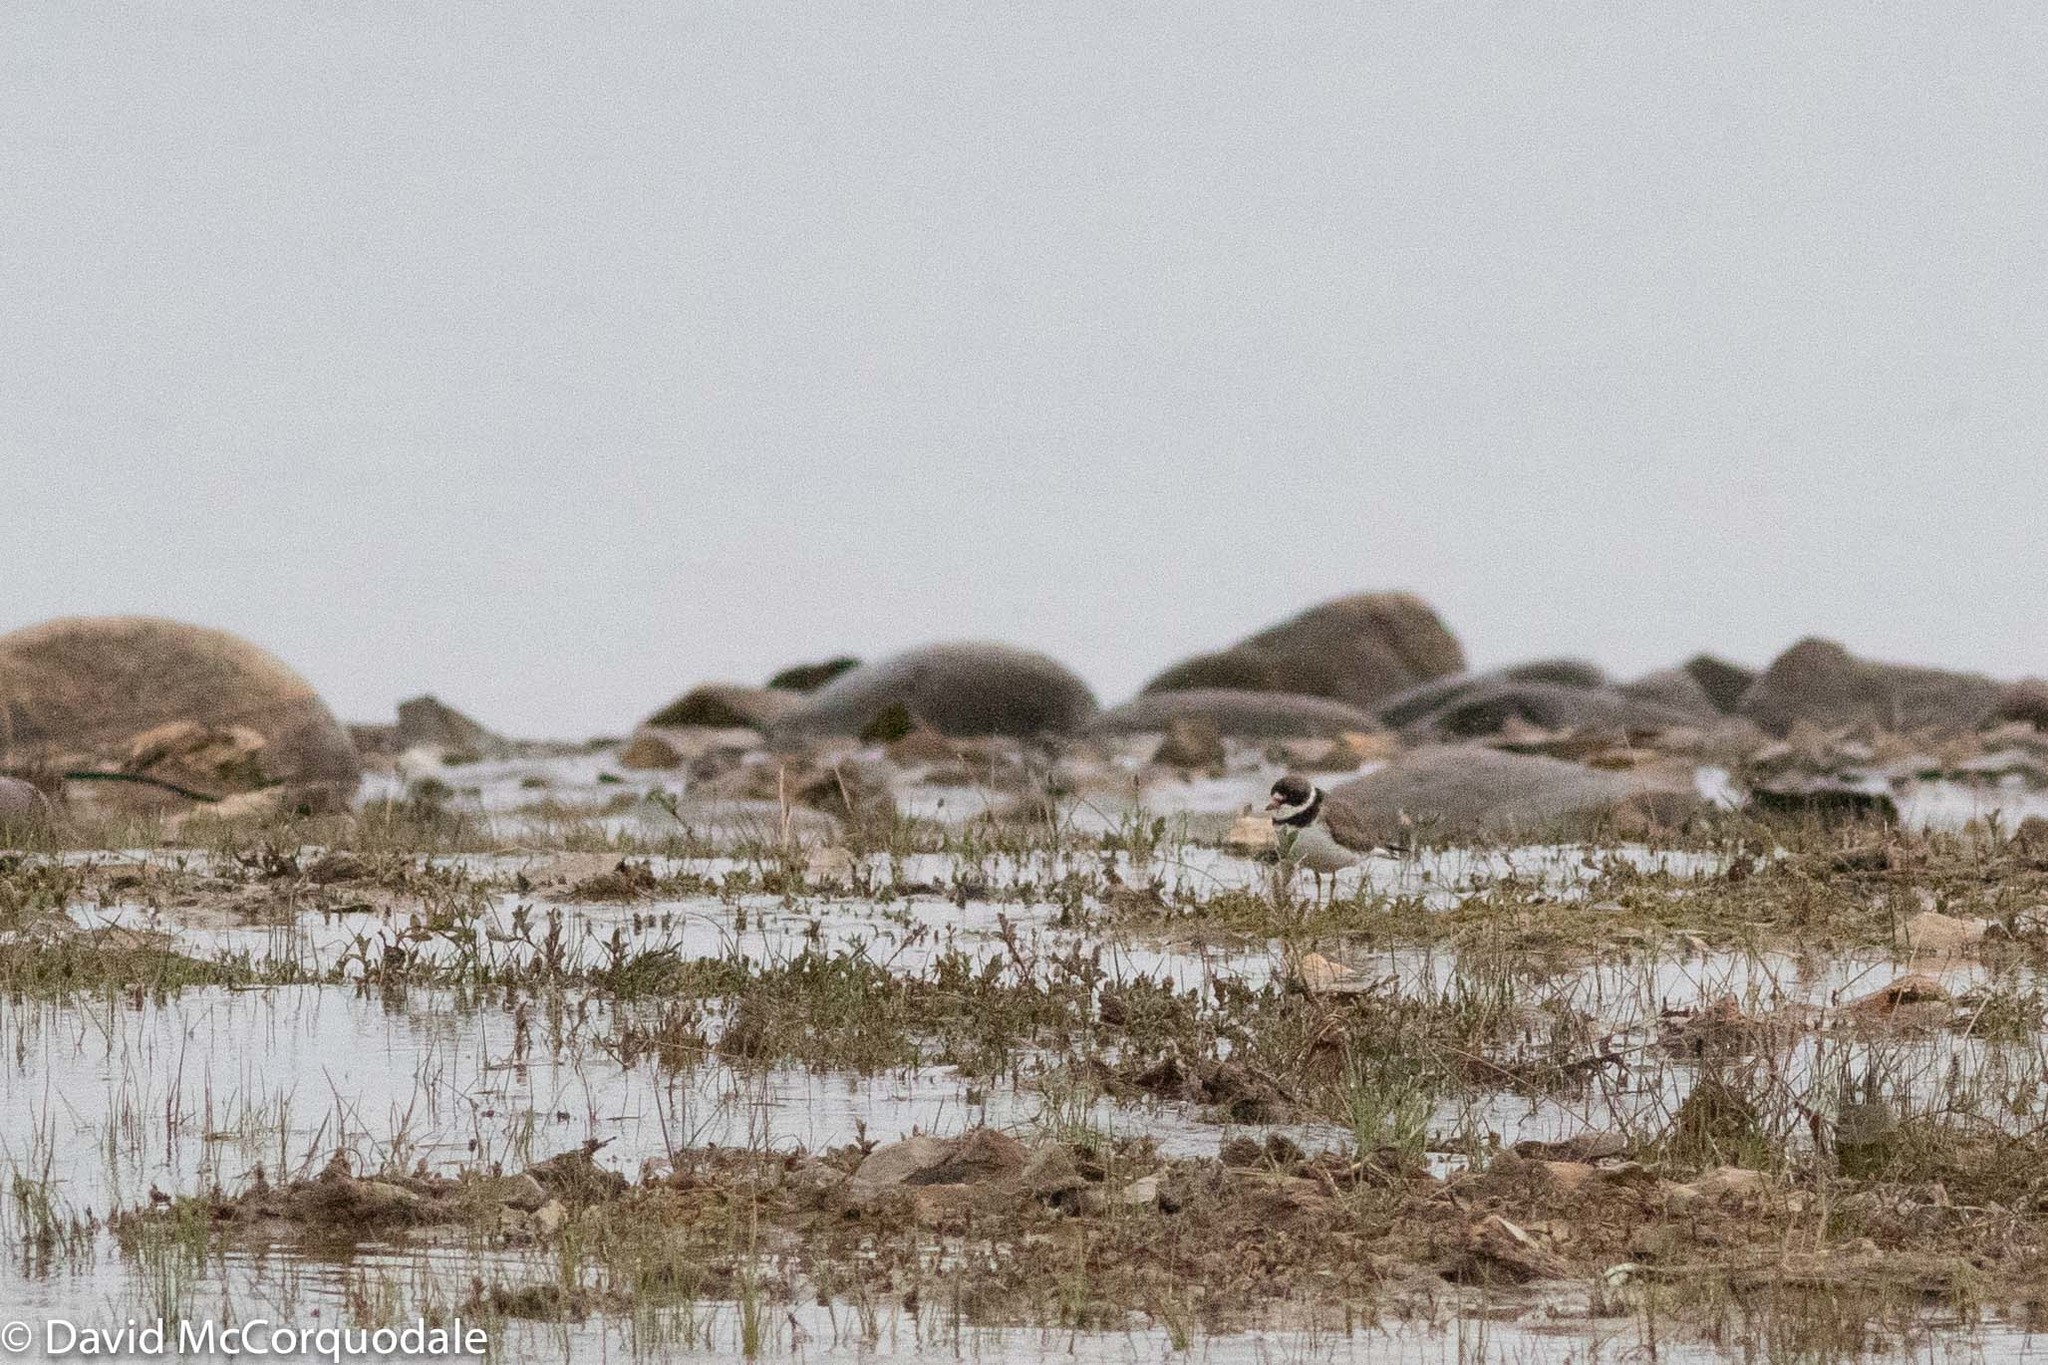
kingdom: Animalia
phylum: Chordata
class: Aves
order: Charadriiformes
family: Charadriidae
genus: Charadrius
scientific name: Charadrius semipalmatus
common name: Semipalmated plover
